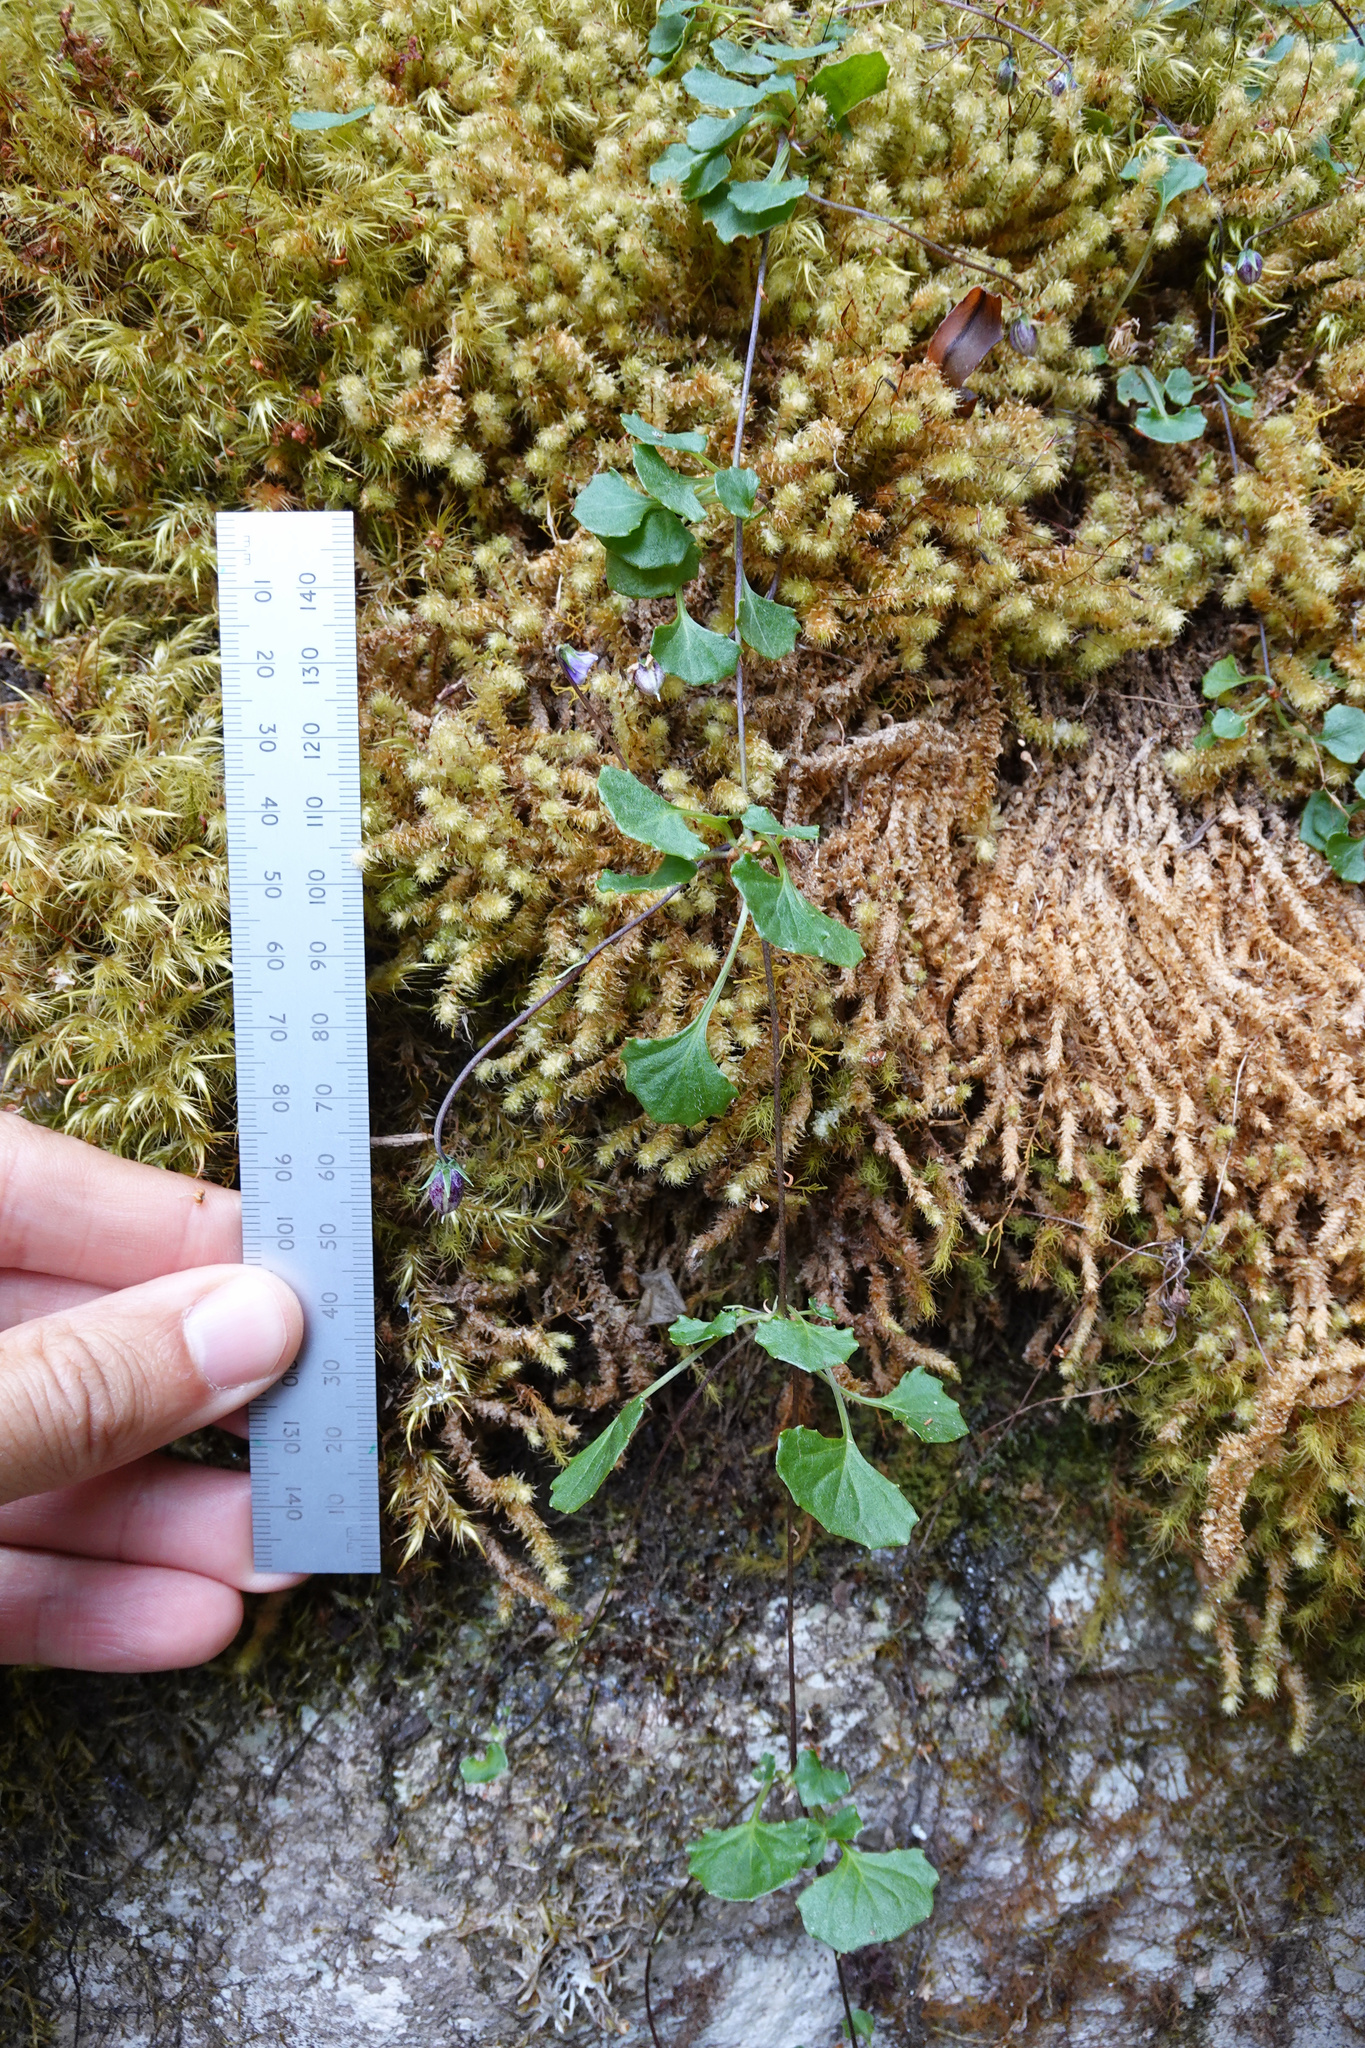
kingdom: Plantae
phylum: Tracheophyta
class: Magnoliopsida
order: Malpighiales
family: Violaceae
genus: Viola
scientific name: Viola hederacea
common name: Australian violet
